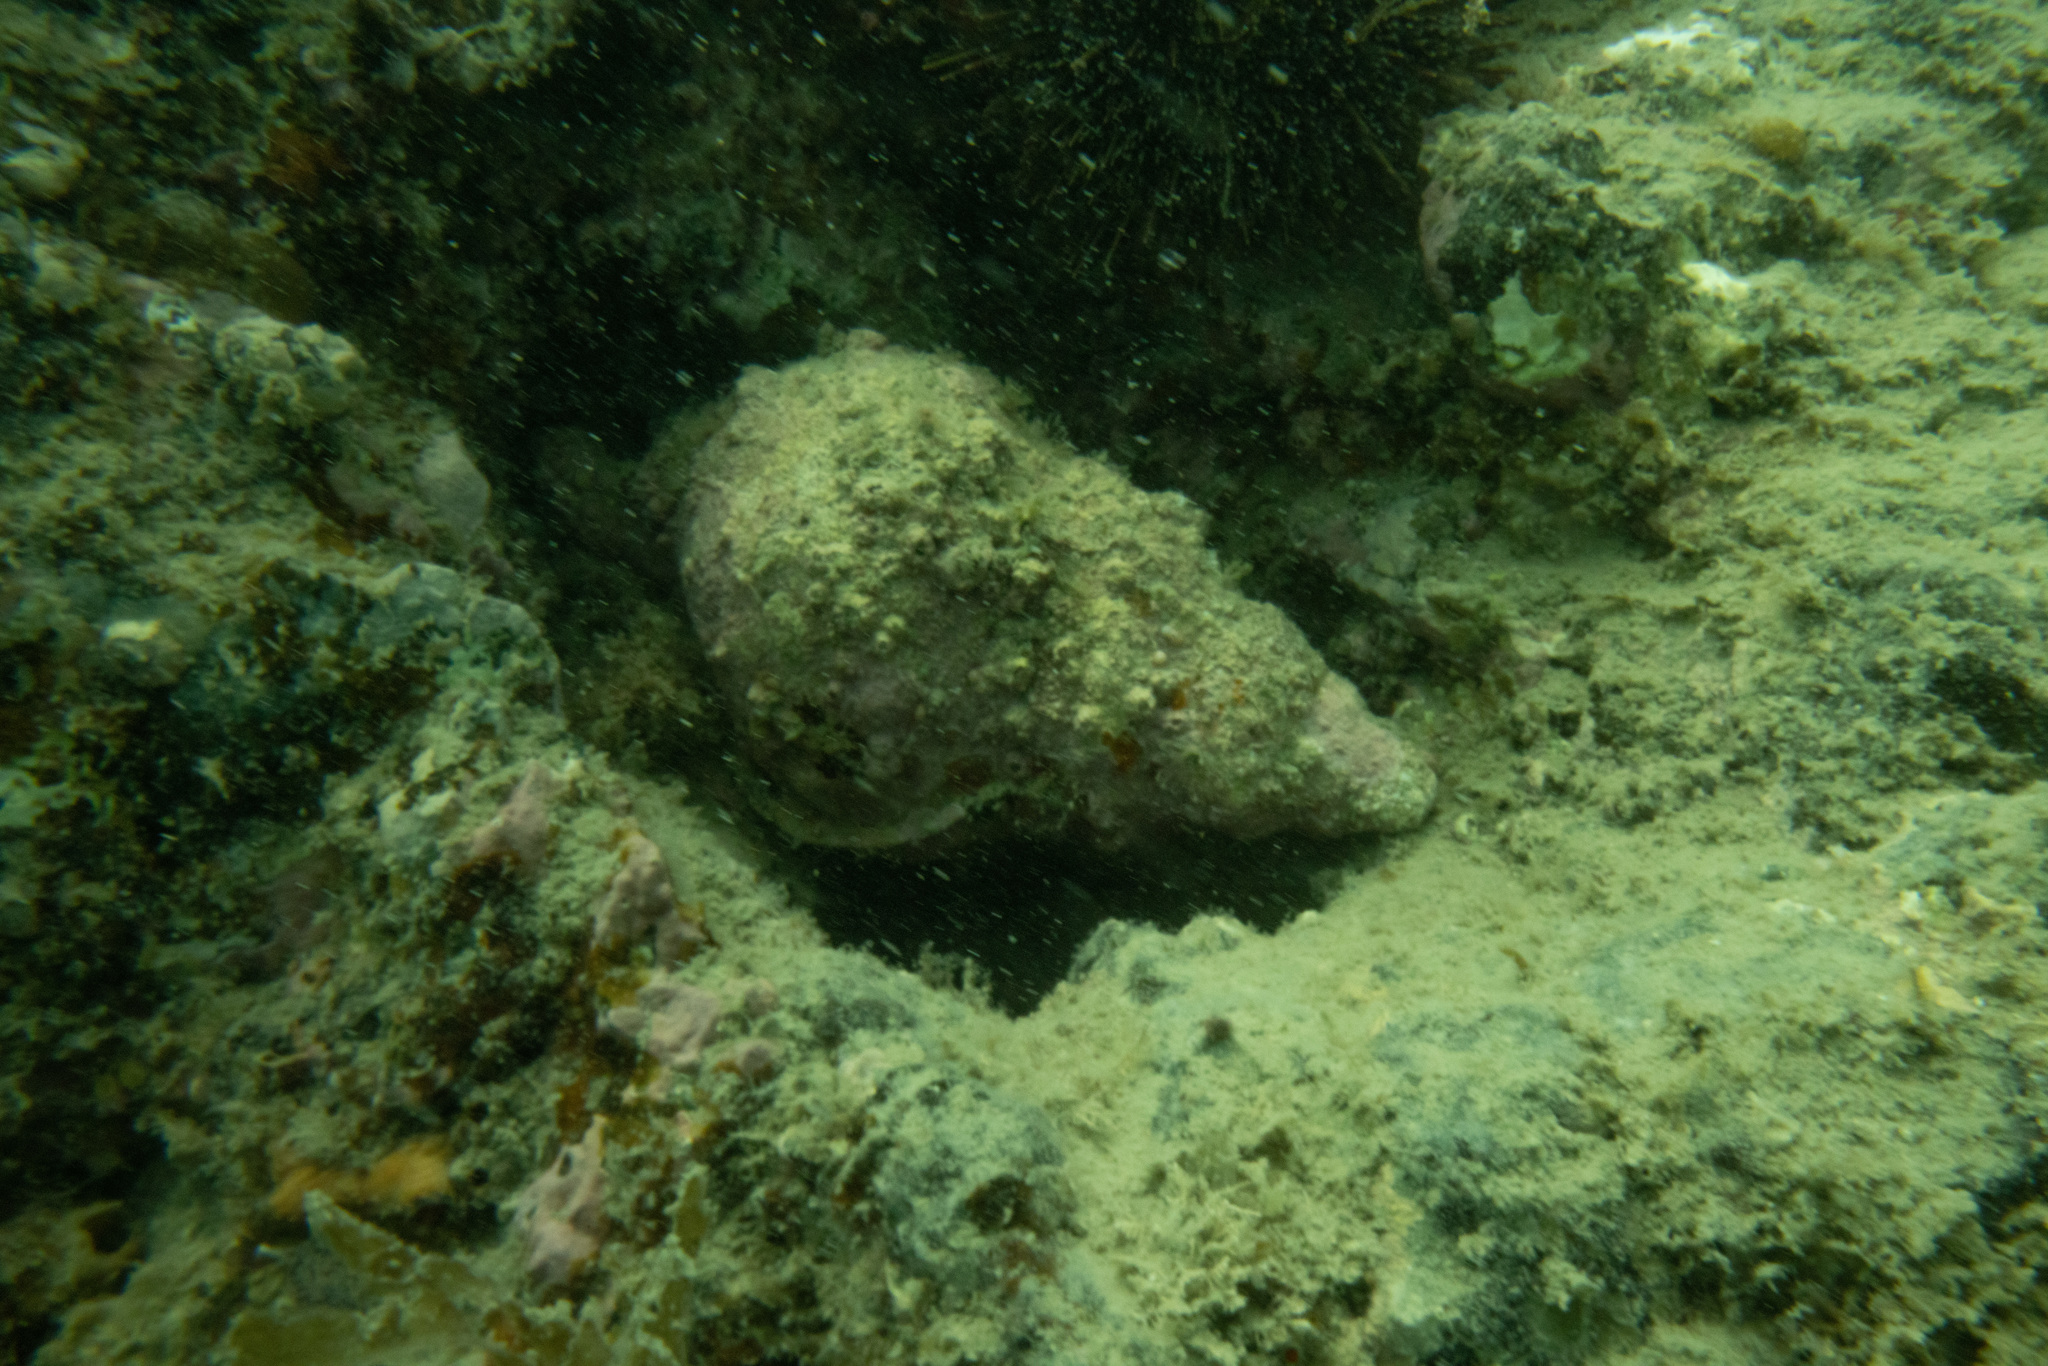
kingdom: Animalia
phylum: Mollusca
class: Gastropoda
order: Littorinimorpha
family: Charoniidae
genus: Charonia
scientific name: Charonia lampas
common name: Knobbed triton
